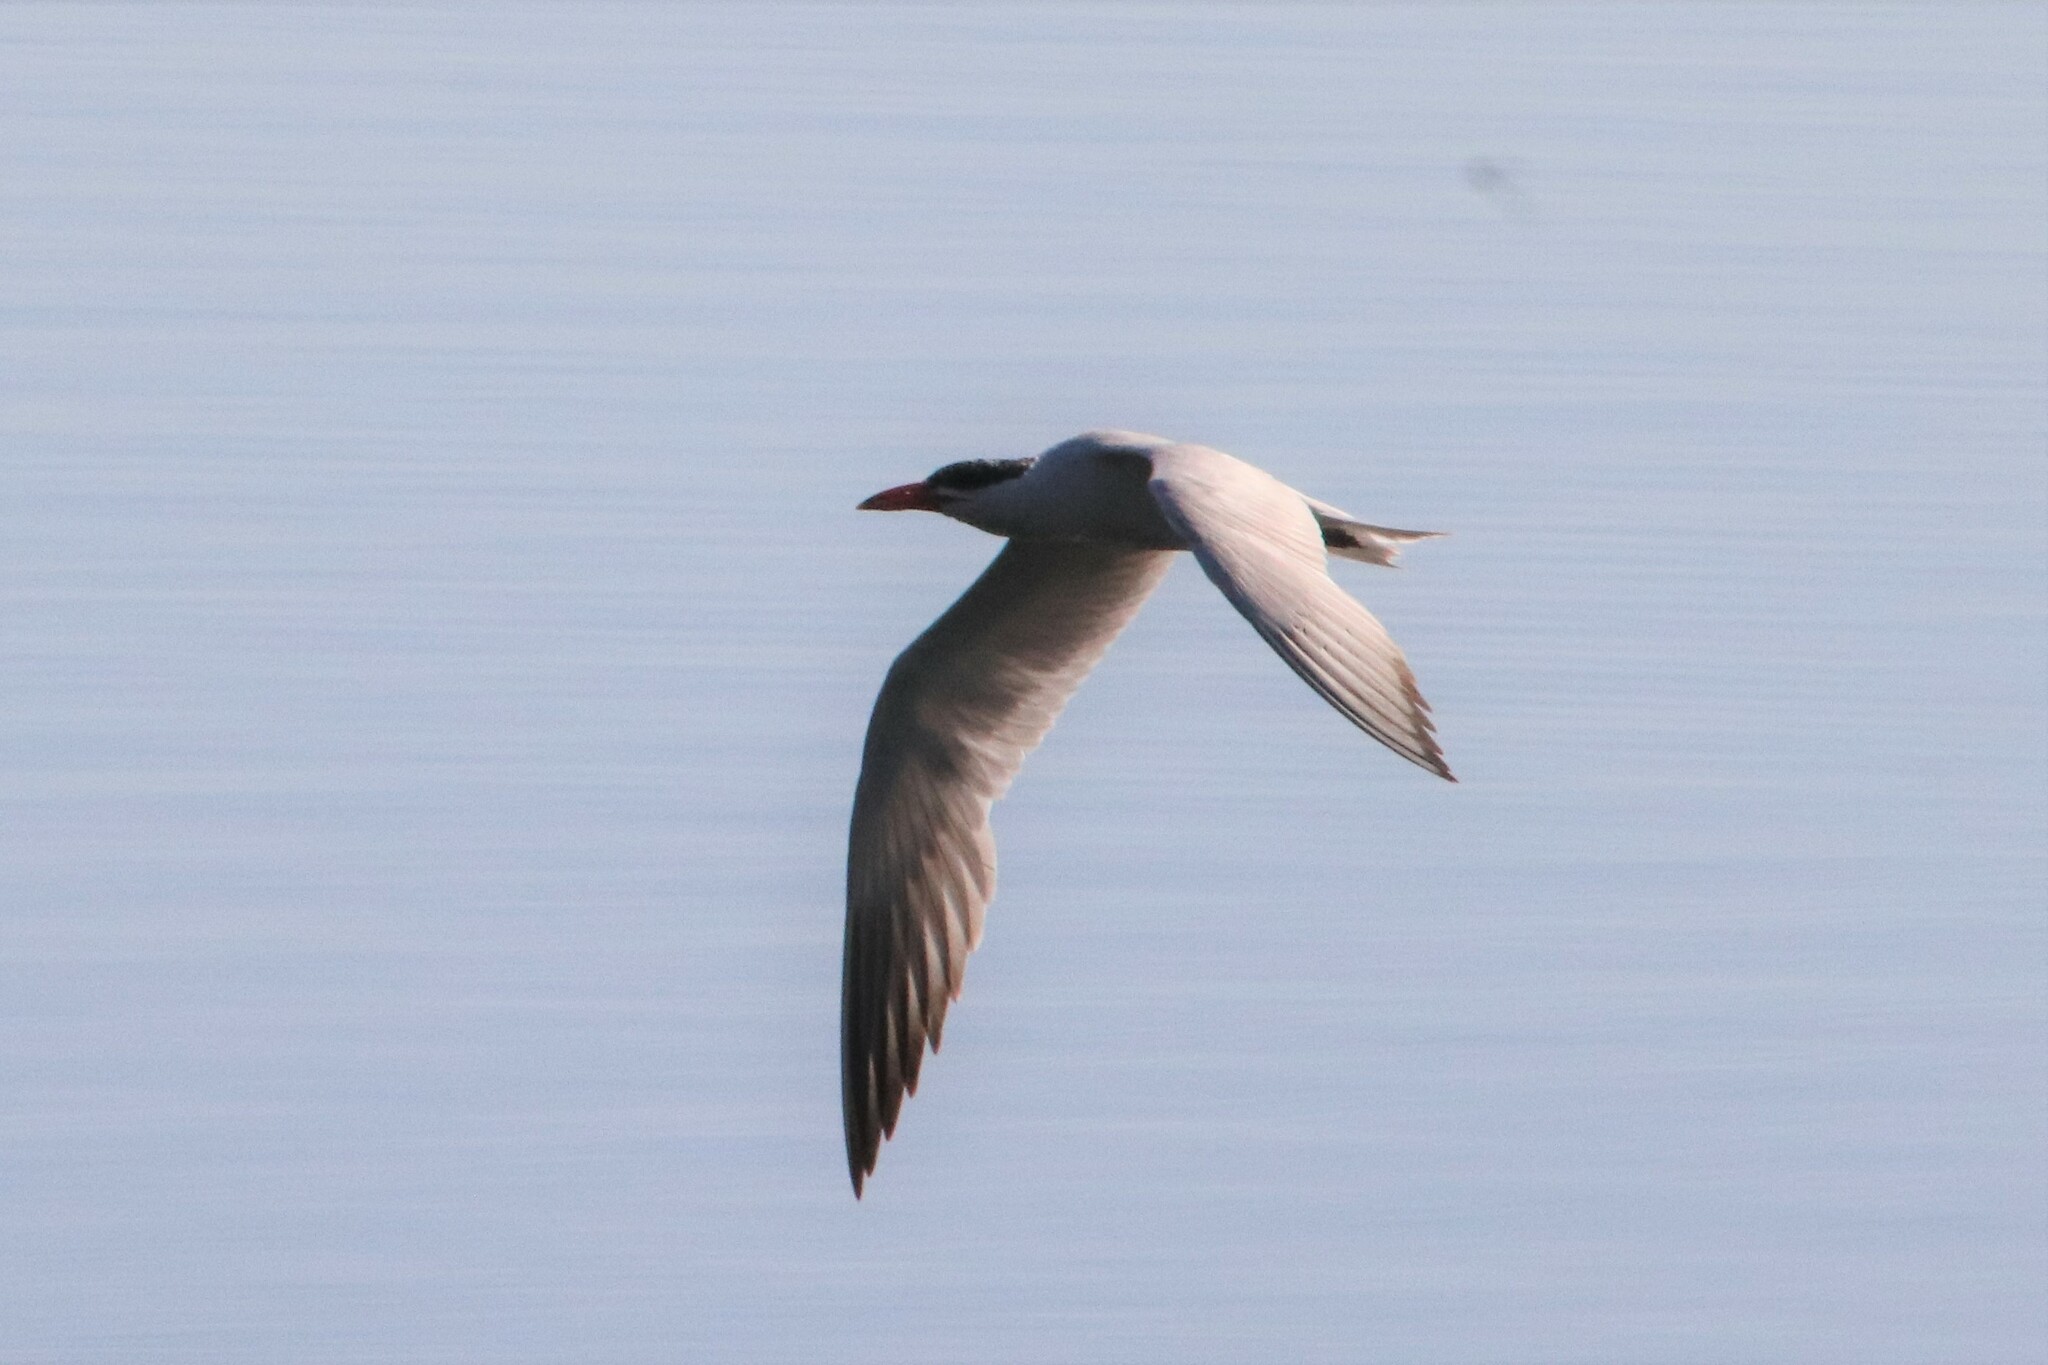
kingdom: Animalia
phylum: Chordata
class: Aves
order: Charadriiformes
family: Laridae
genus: Hydroprogne
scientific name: Hydroprogne caspia
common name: Caspian tern
